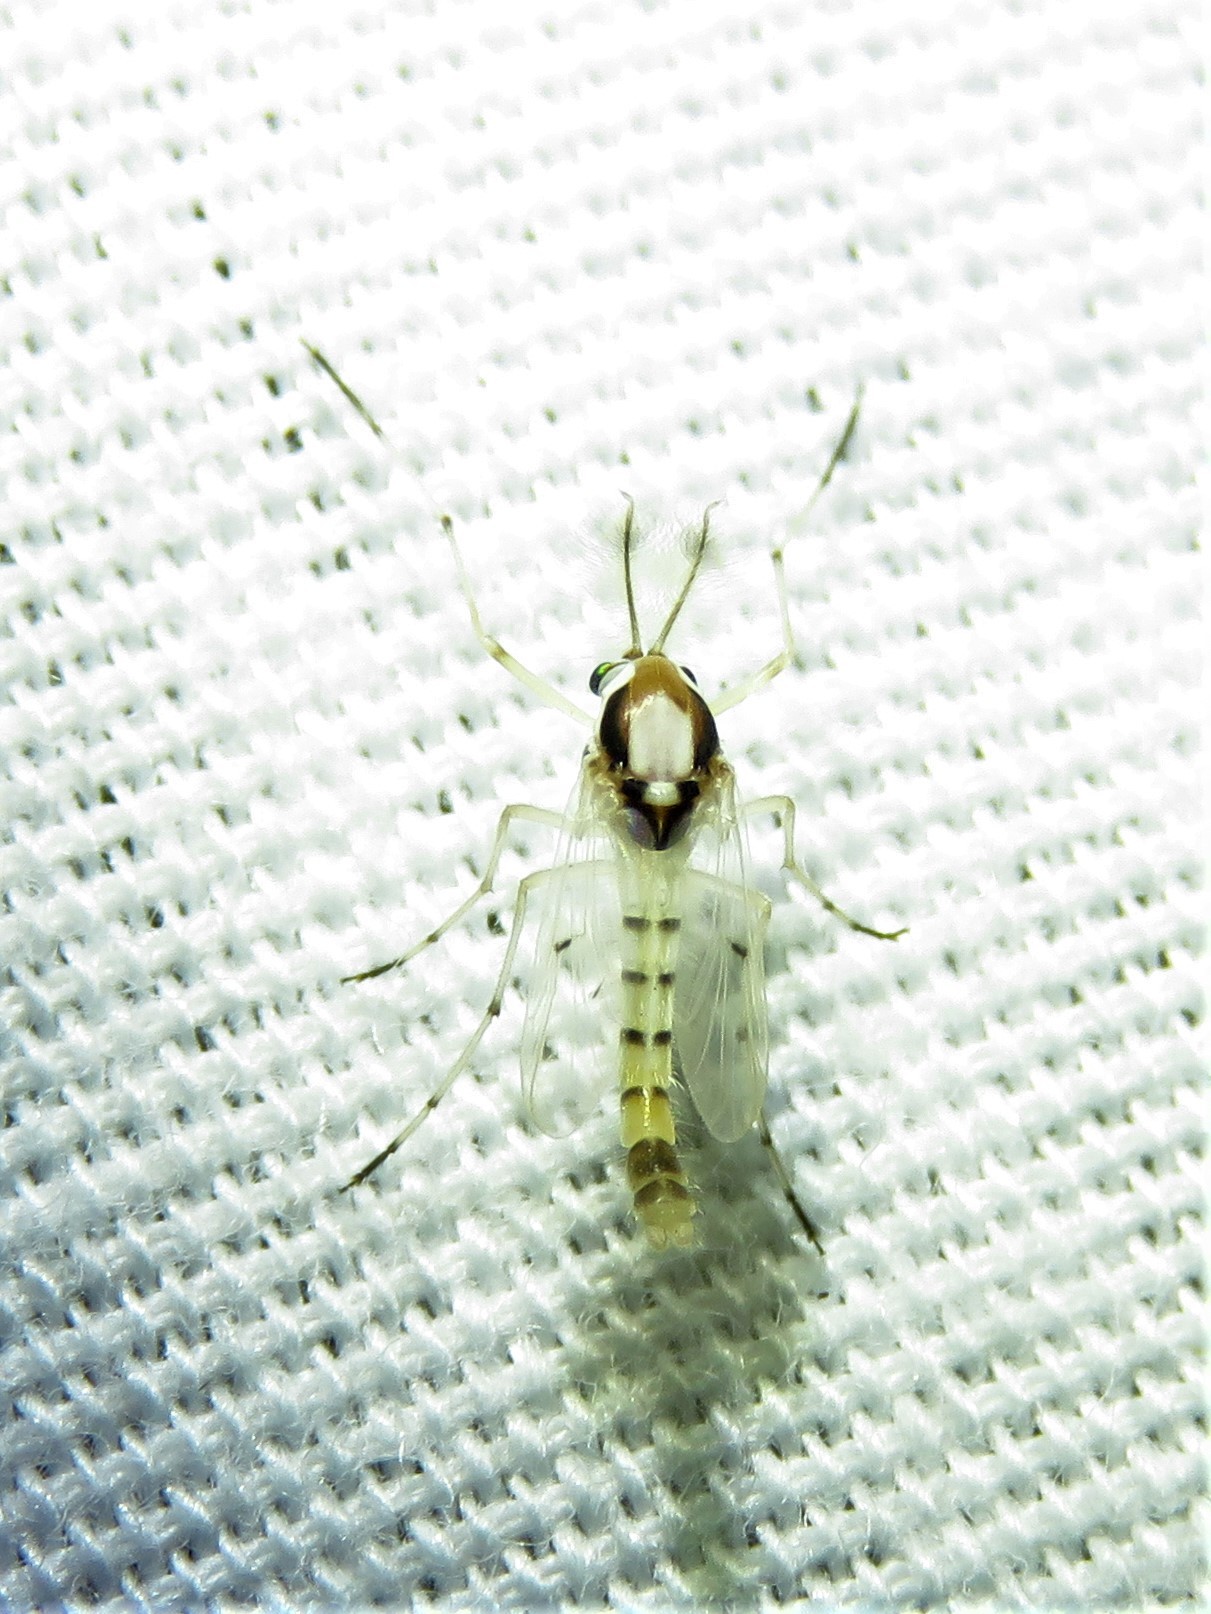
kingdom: Animalia
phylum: Arthropoda
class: Insecta
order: Diptera
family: Chironomidae
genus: Coelotanypus
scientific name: Coelotanypus concinnus
